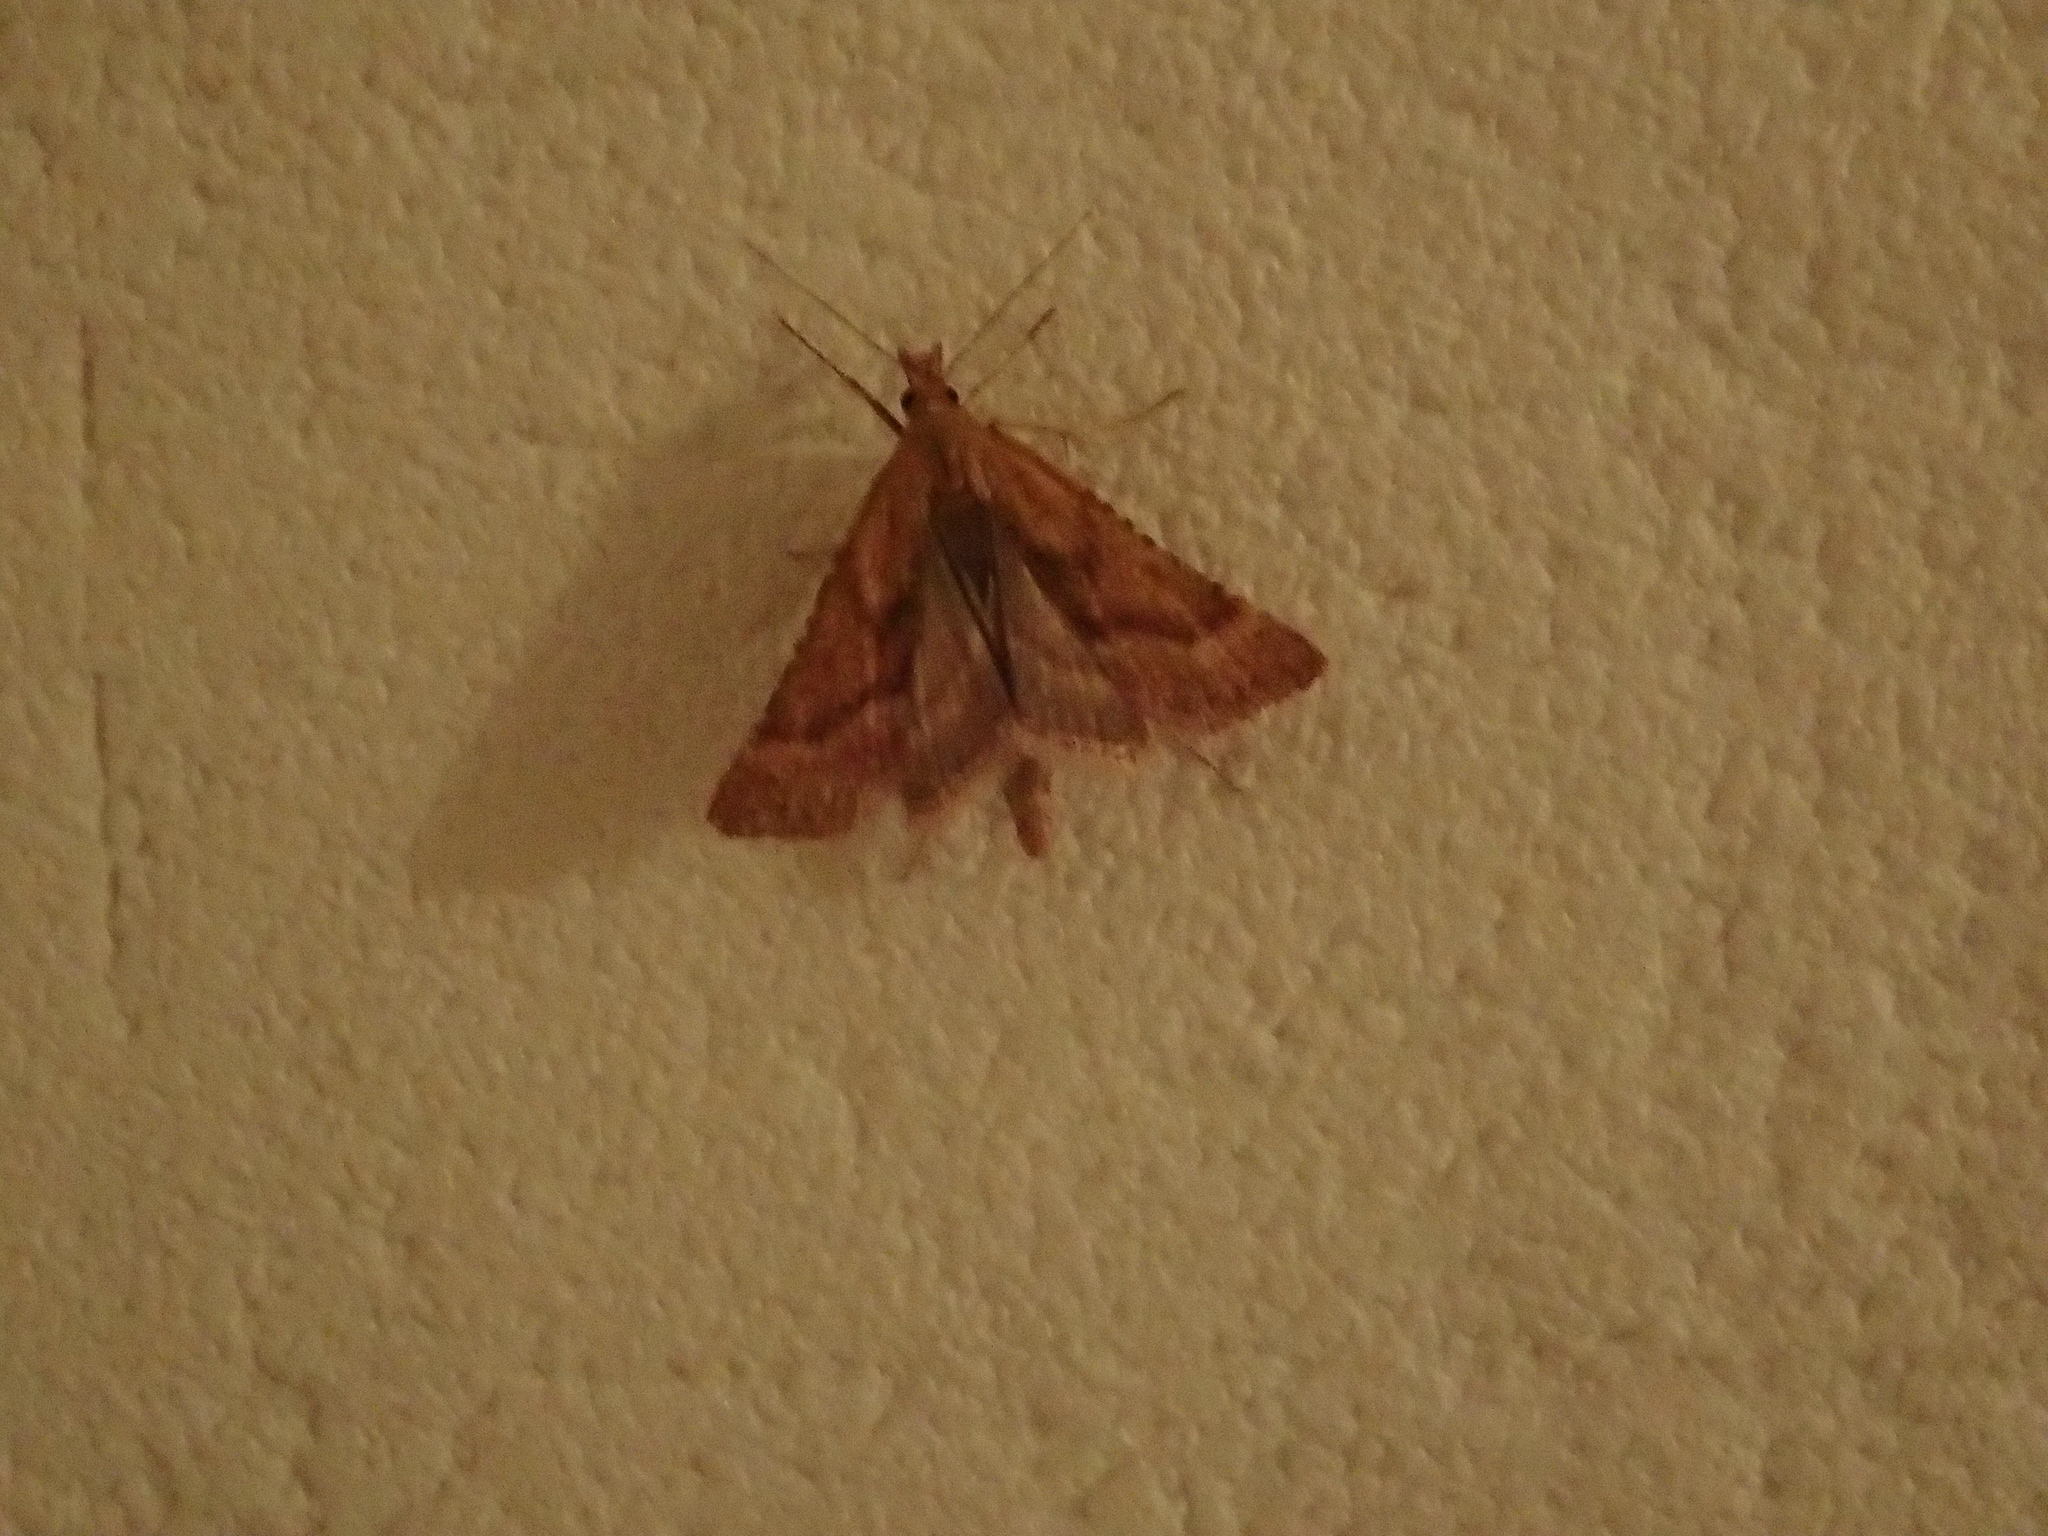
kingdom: Animalia
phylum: Arthropoda
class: Insecta
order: Lepidoptera
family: Pyralidae
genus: Synaphe
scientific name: Synaphe punctalis
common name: Long-legged tabby
